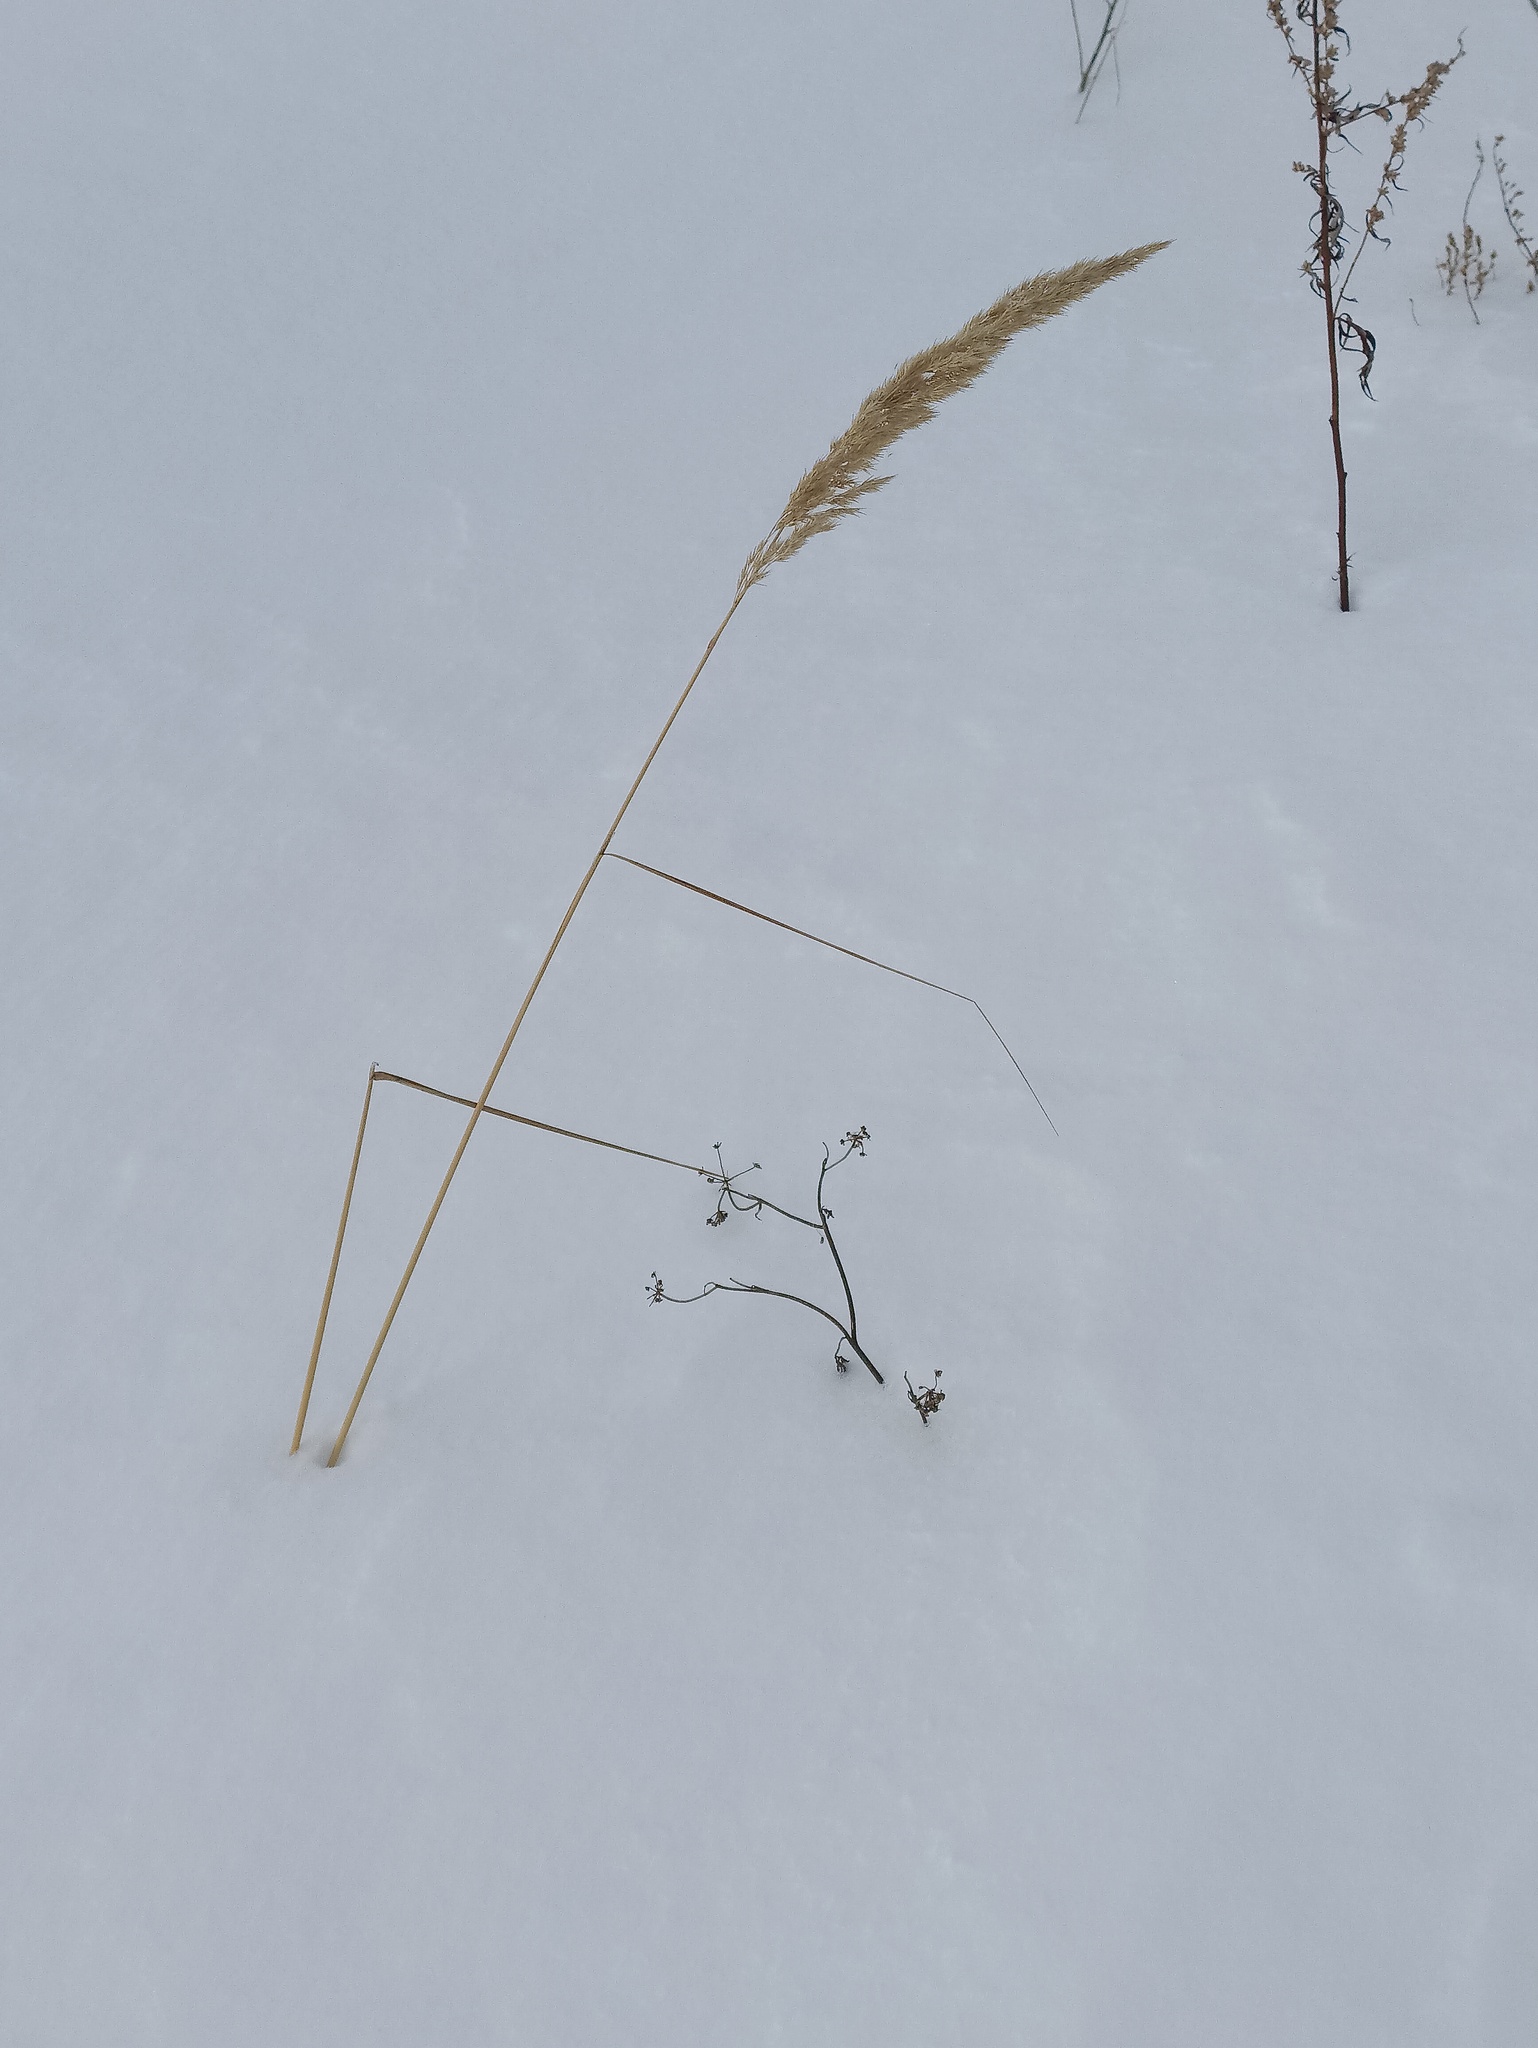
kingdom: Plantae
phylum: Tracheophyta
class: Liliopsida
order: Poales
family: Poaceae
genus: Calamagrostis
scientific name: Calamagrostis epigejos
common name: Wood small-reed
